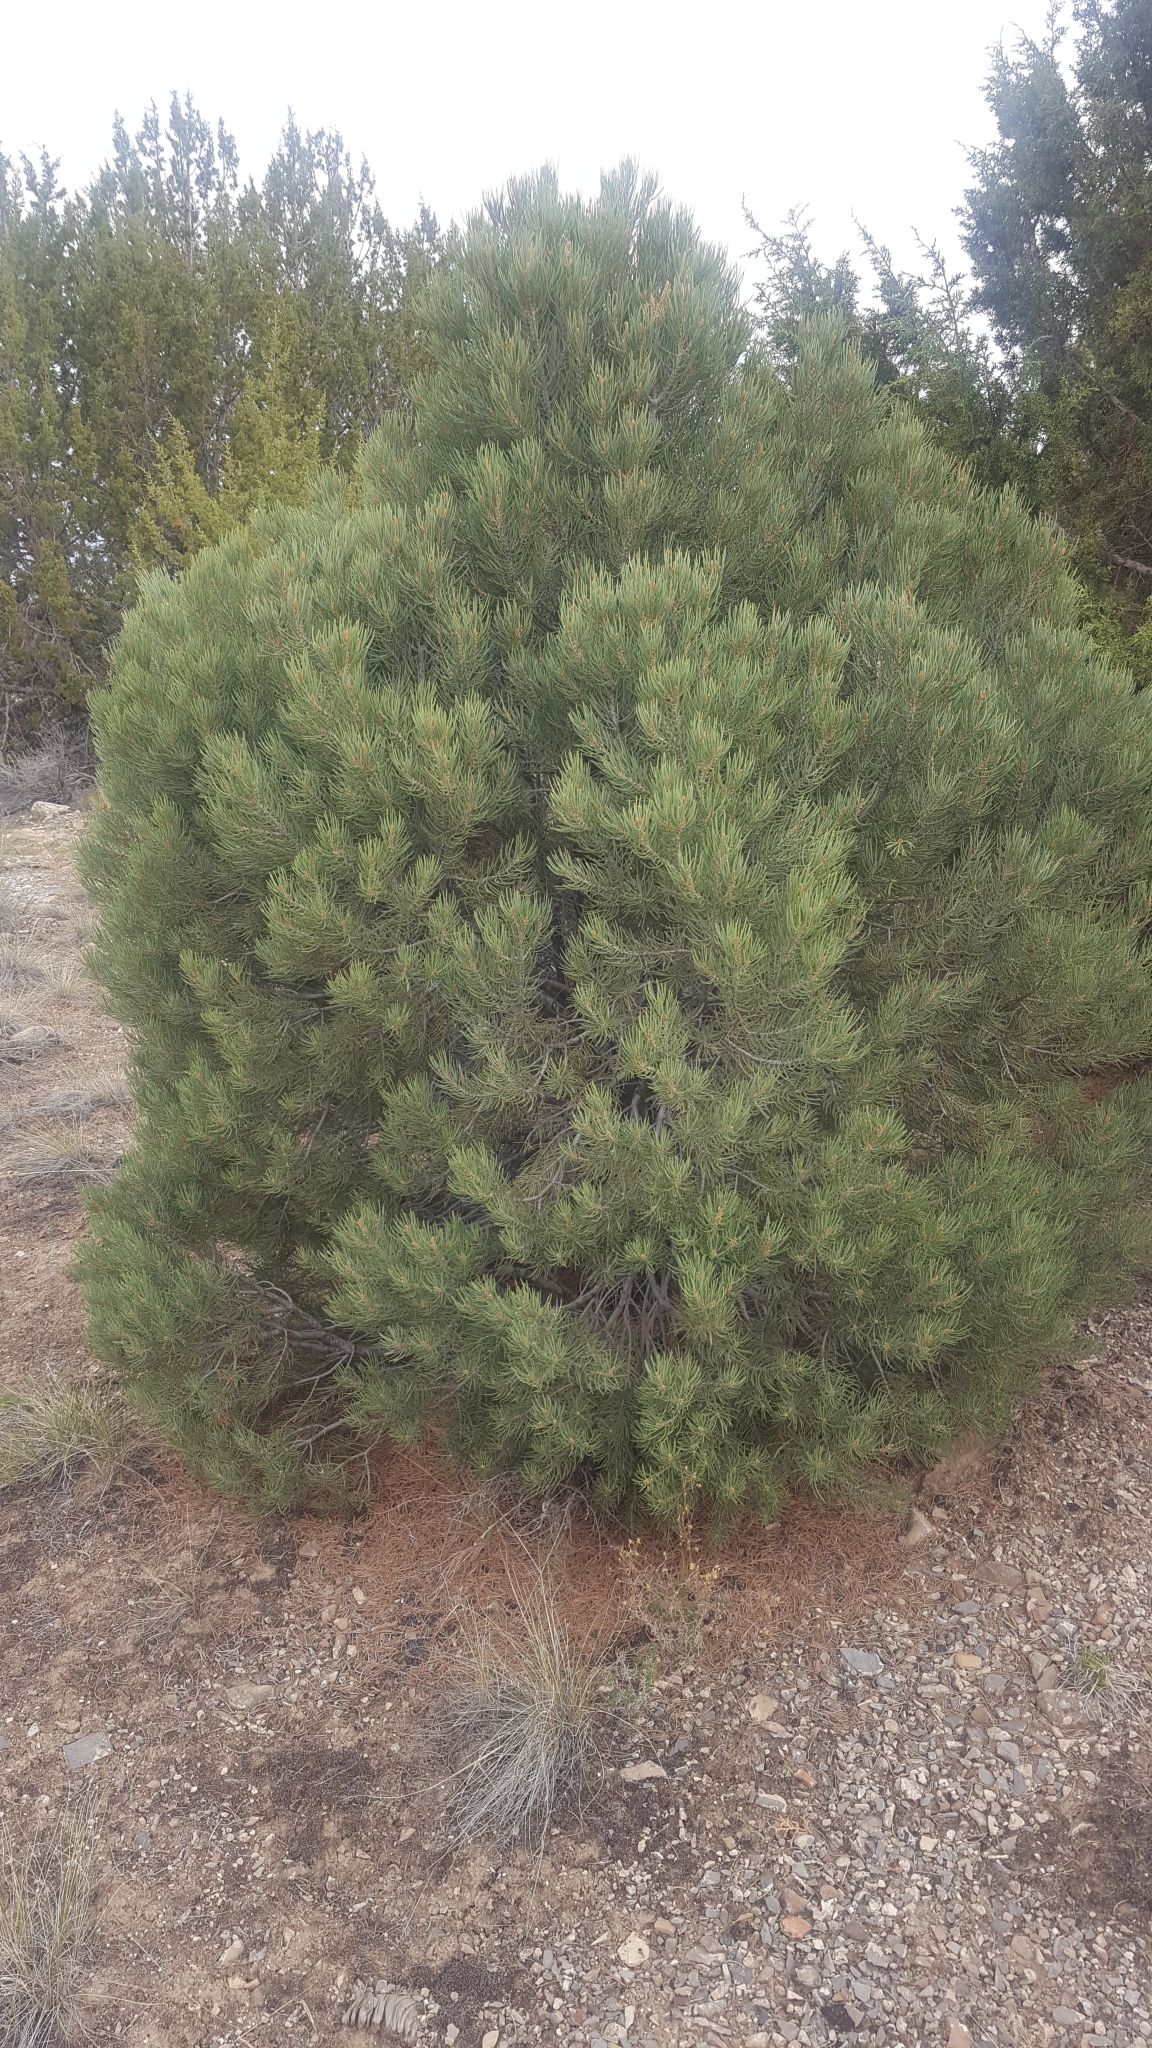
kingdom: Plantae
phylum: Tracheophyta
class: Pinopsida
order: Pinales
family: Pinaceae
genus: Pinus
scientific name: Pinus monophylla
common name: One-leaved nut pine
